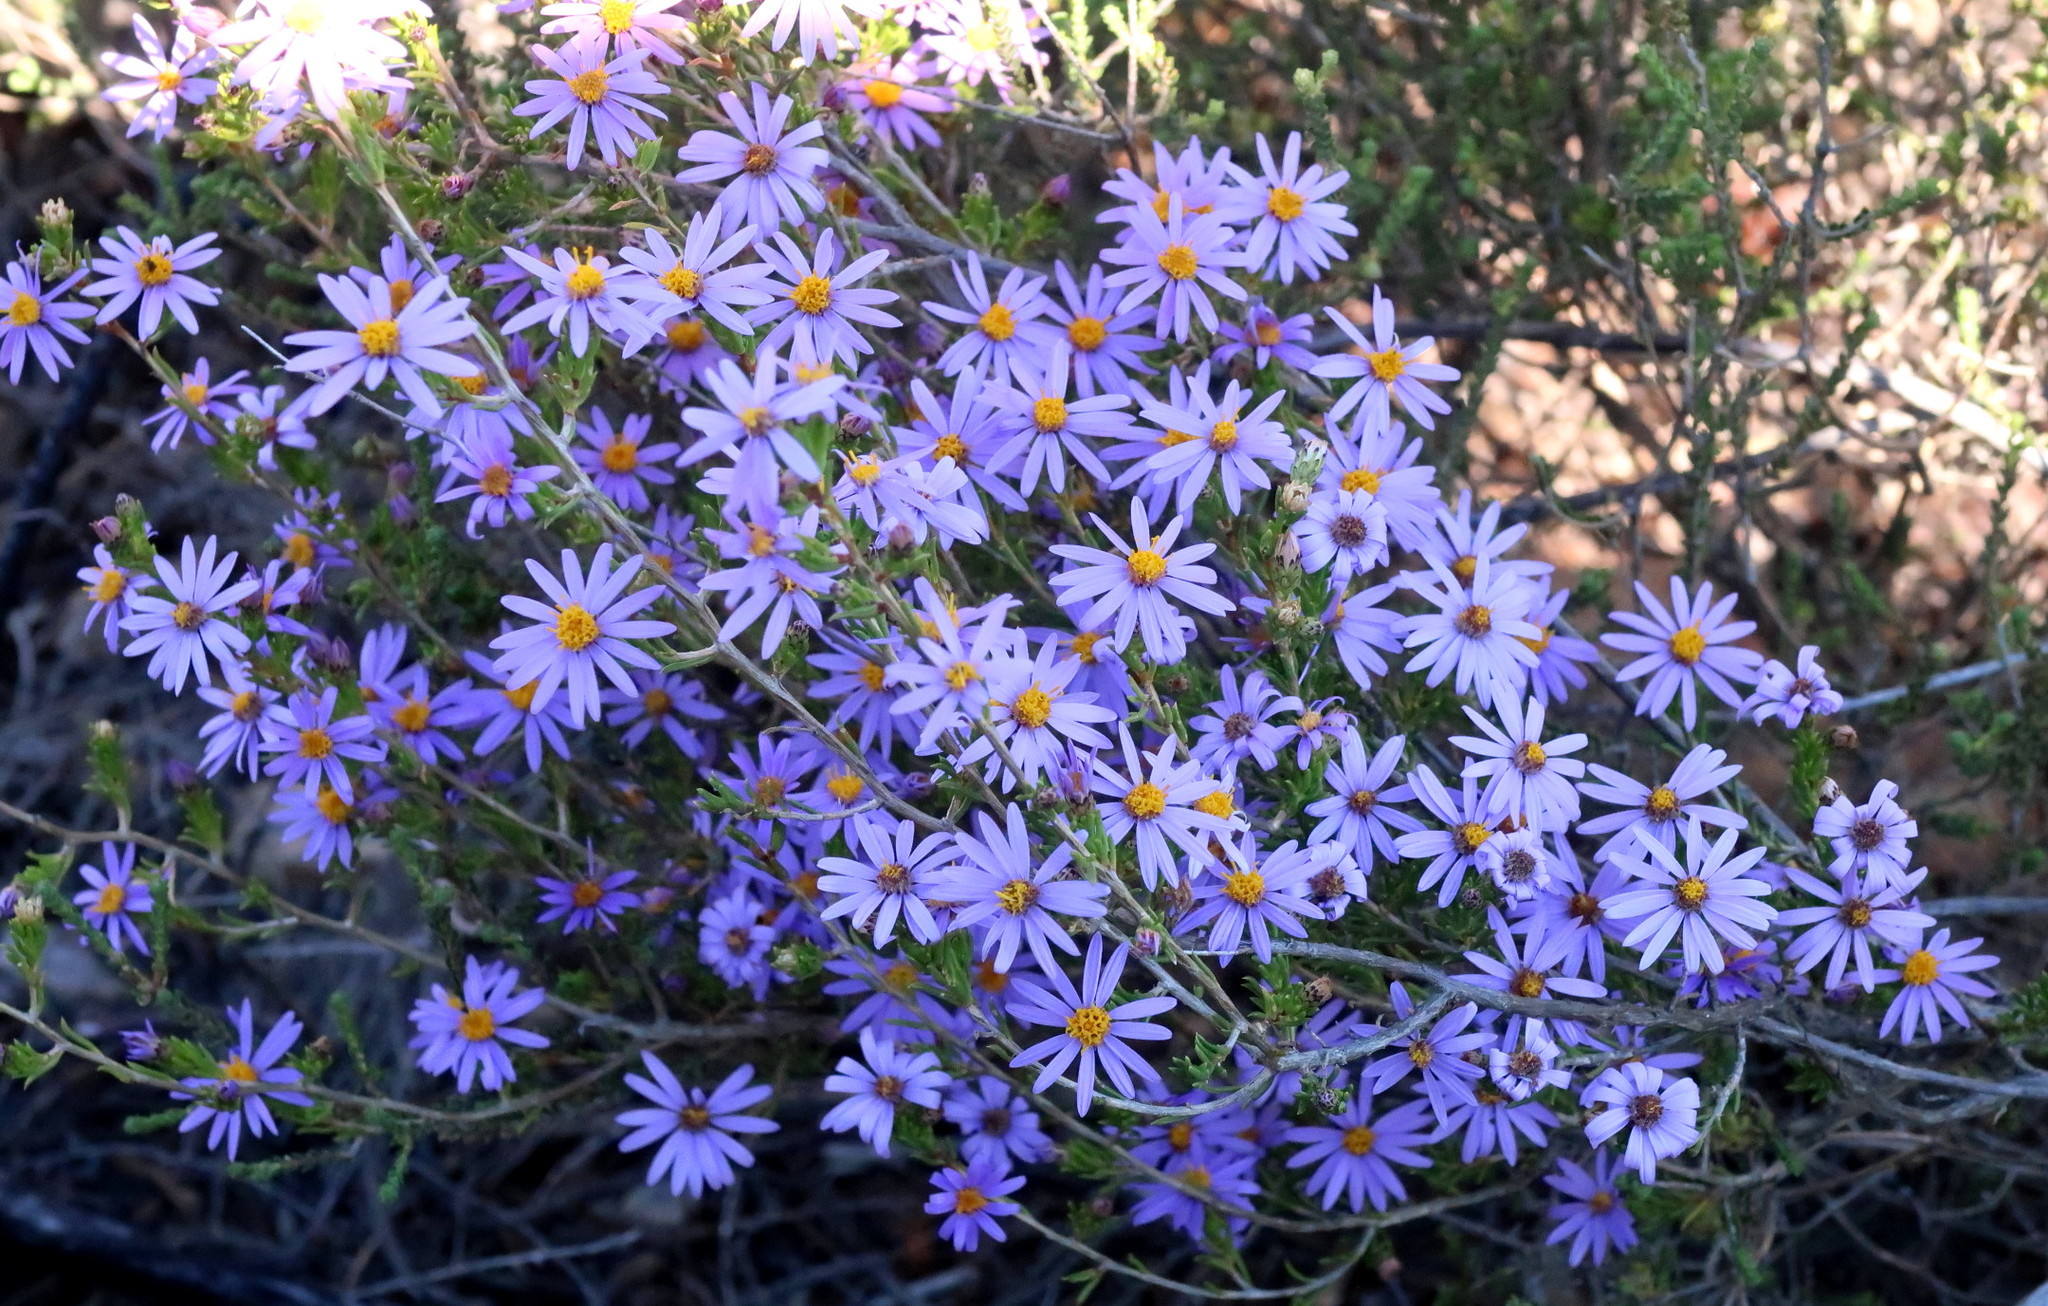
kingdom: Plantae
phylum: Tracheophyta
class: Magnoliopsida
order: Asterales
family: Asteraceae
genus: Felicia
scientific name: Felicia filifolia
